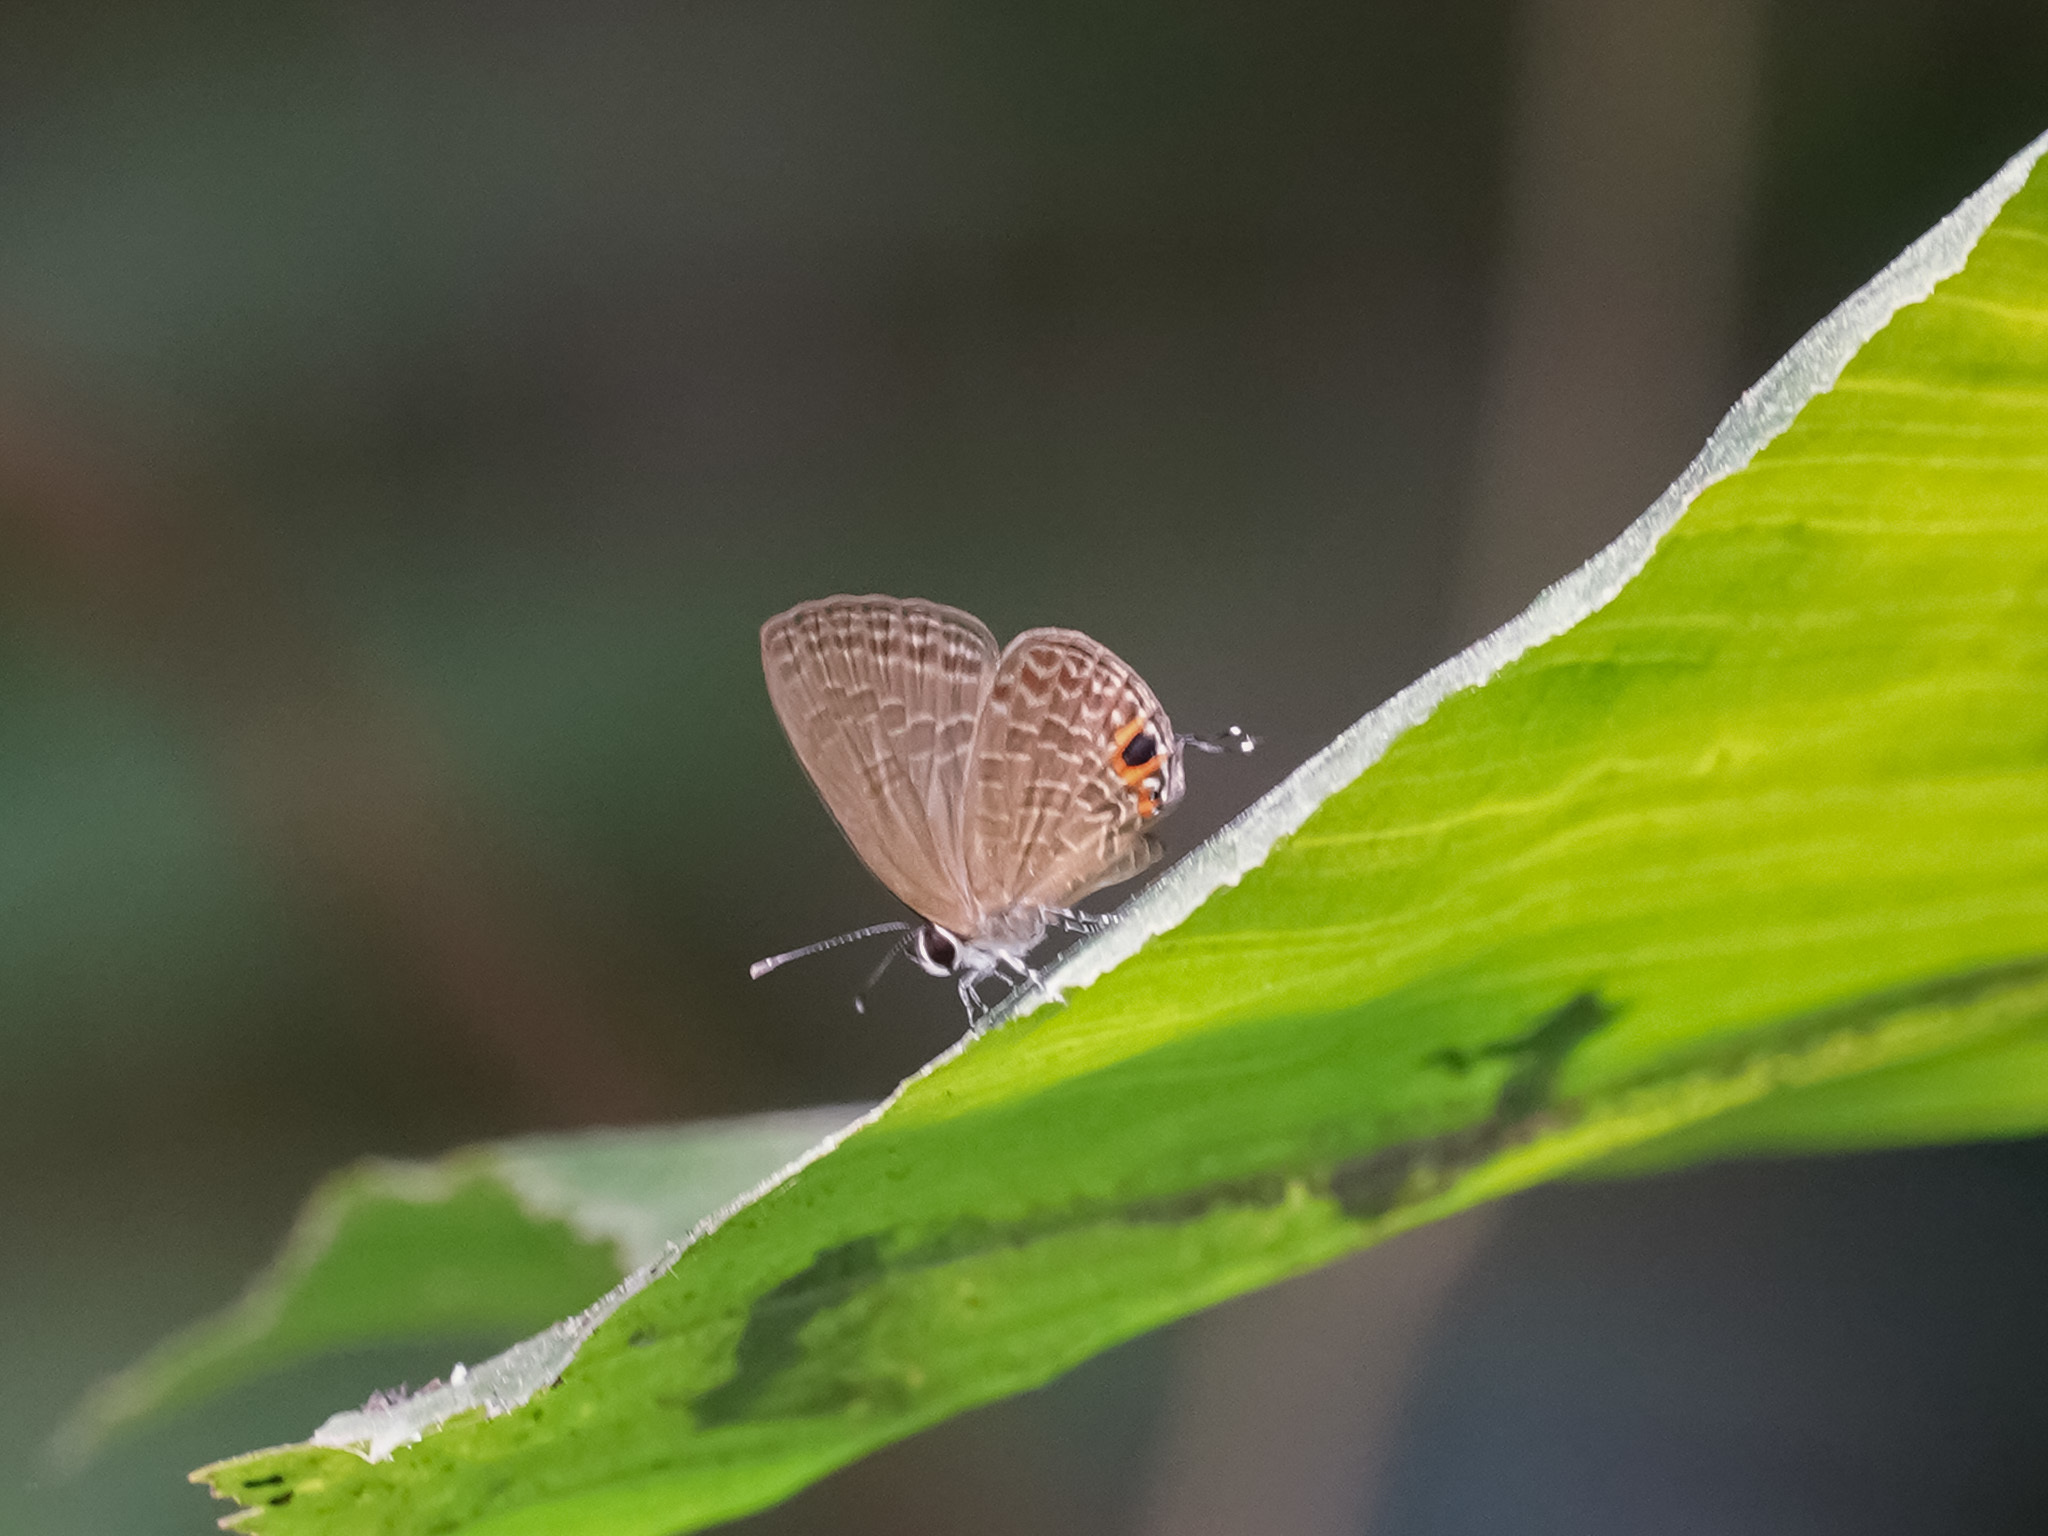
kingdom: Animalia
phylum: Arthropoda
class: Insecta
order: Lepidoptera
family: Lycaenidae
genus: Jamides
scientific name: Jamides bochus
